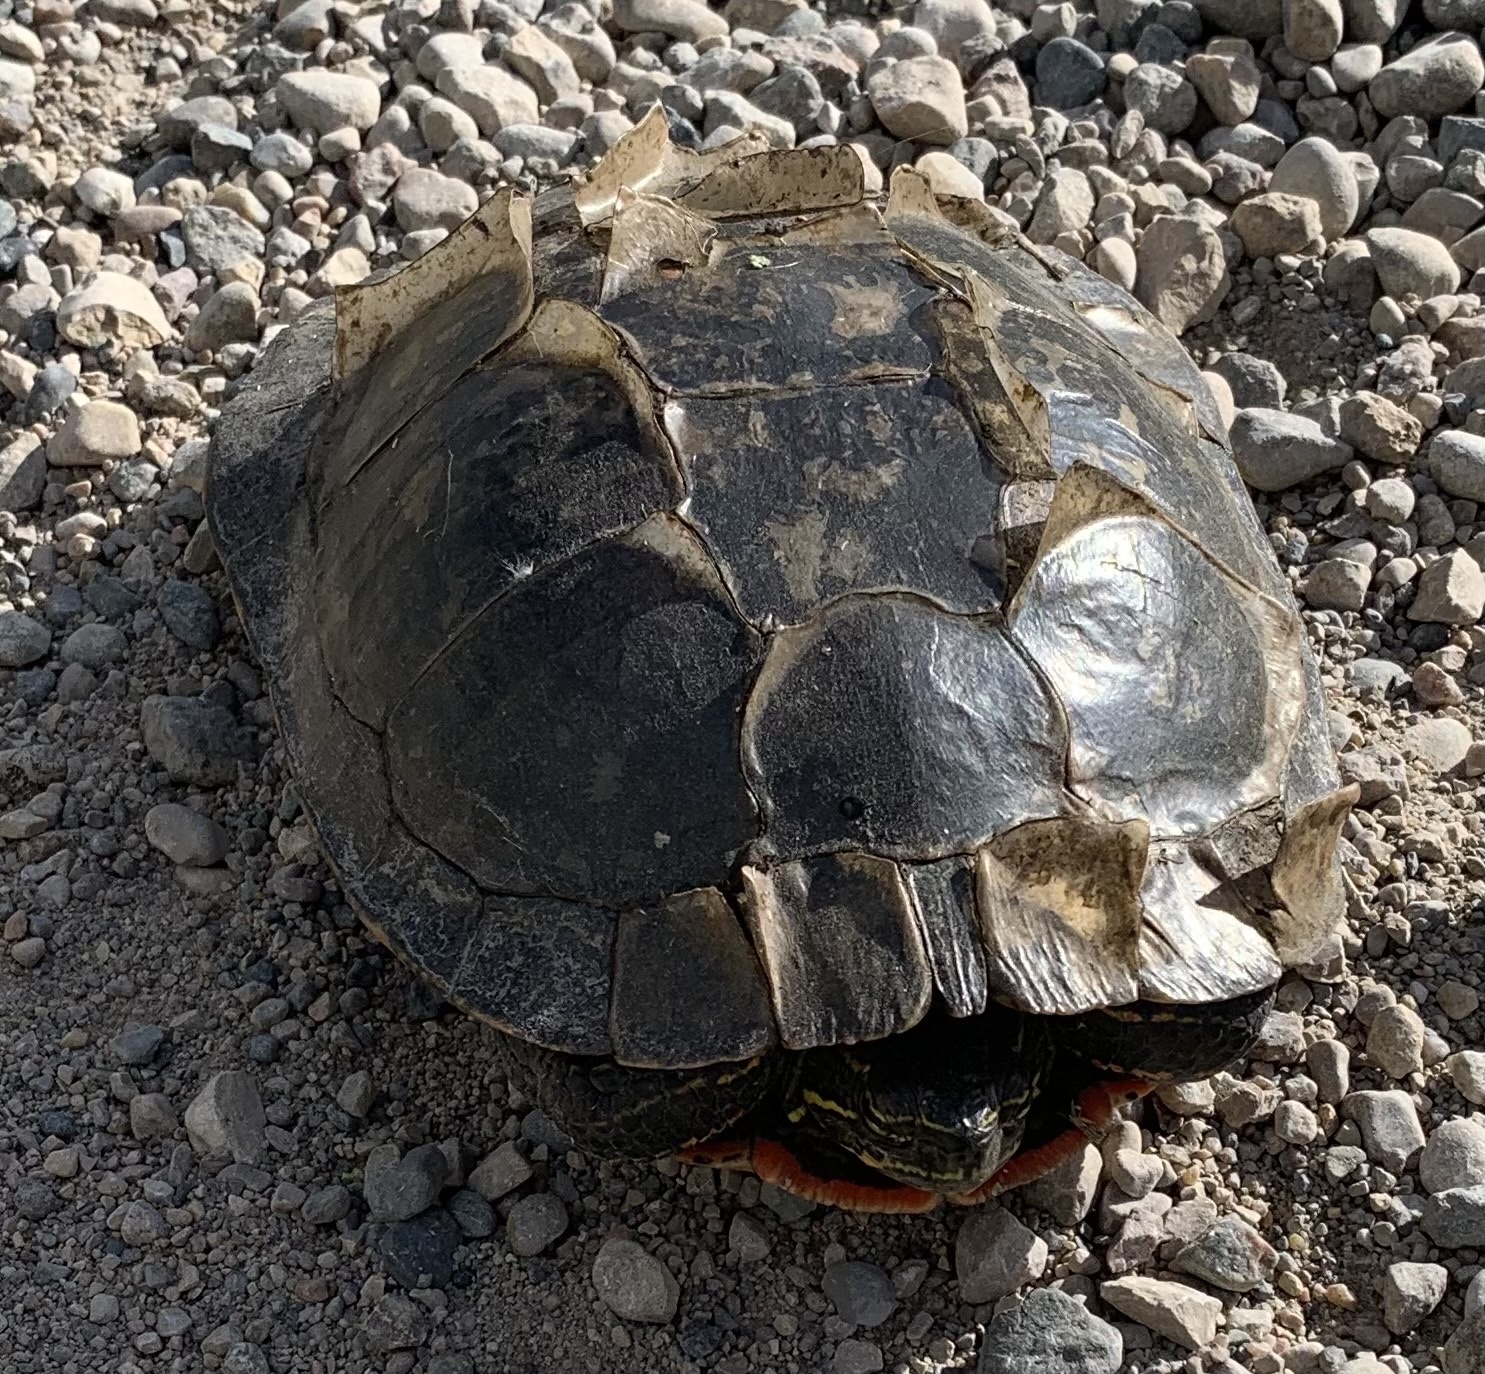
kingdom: Animalia
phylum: Chordata
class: Testudines
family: Emydidae
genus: Chrysemys
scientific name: Chrysemys picta
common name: Painted turtle
